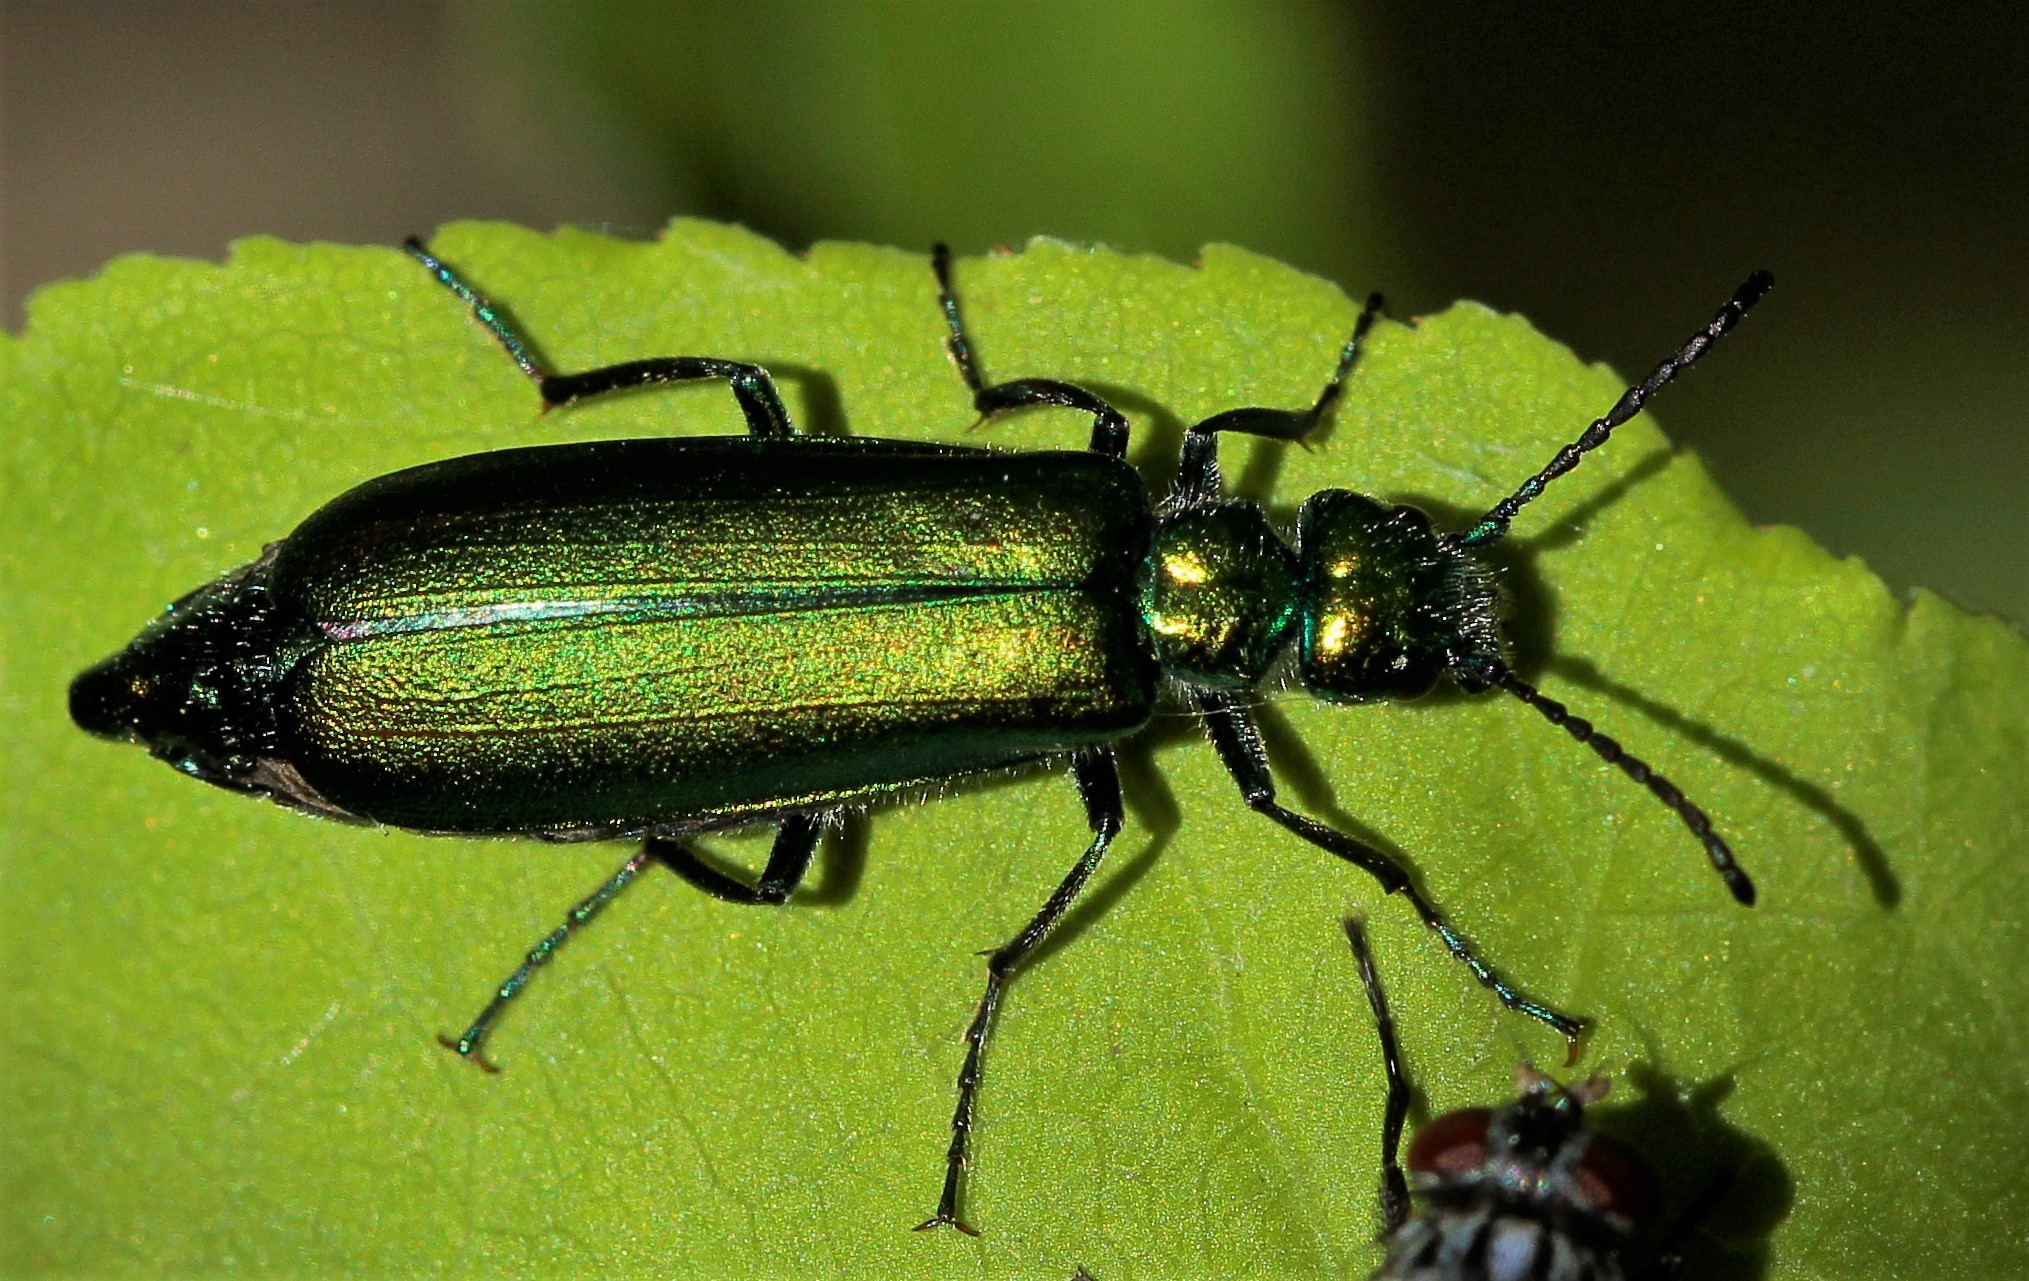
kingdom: Animalia
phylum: Arthropoda
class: Insecta
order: Coleoptera
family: Meloidae
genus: Lytta
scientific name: Lytta vesicatoria
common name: Spanish fly
